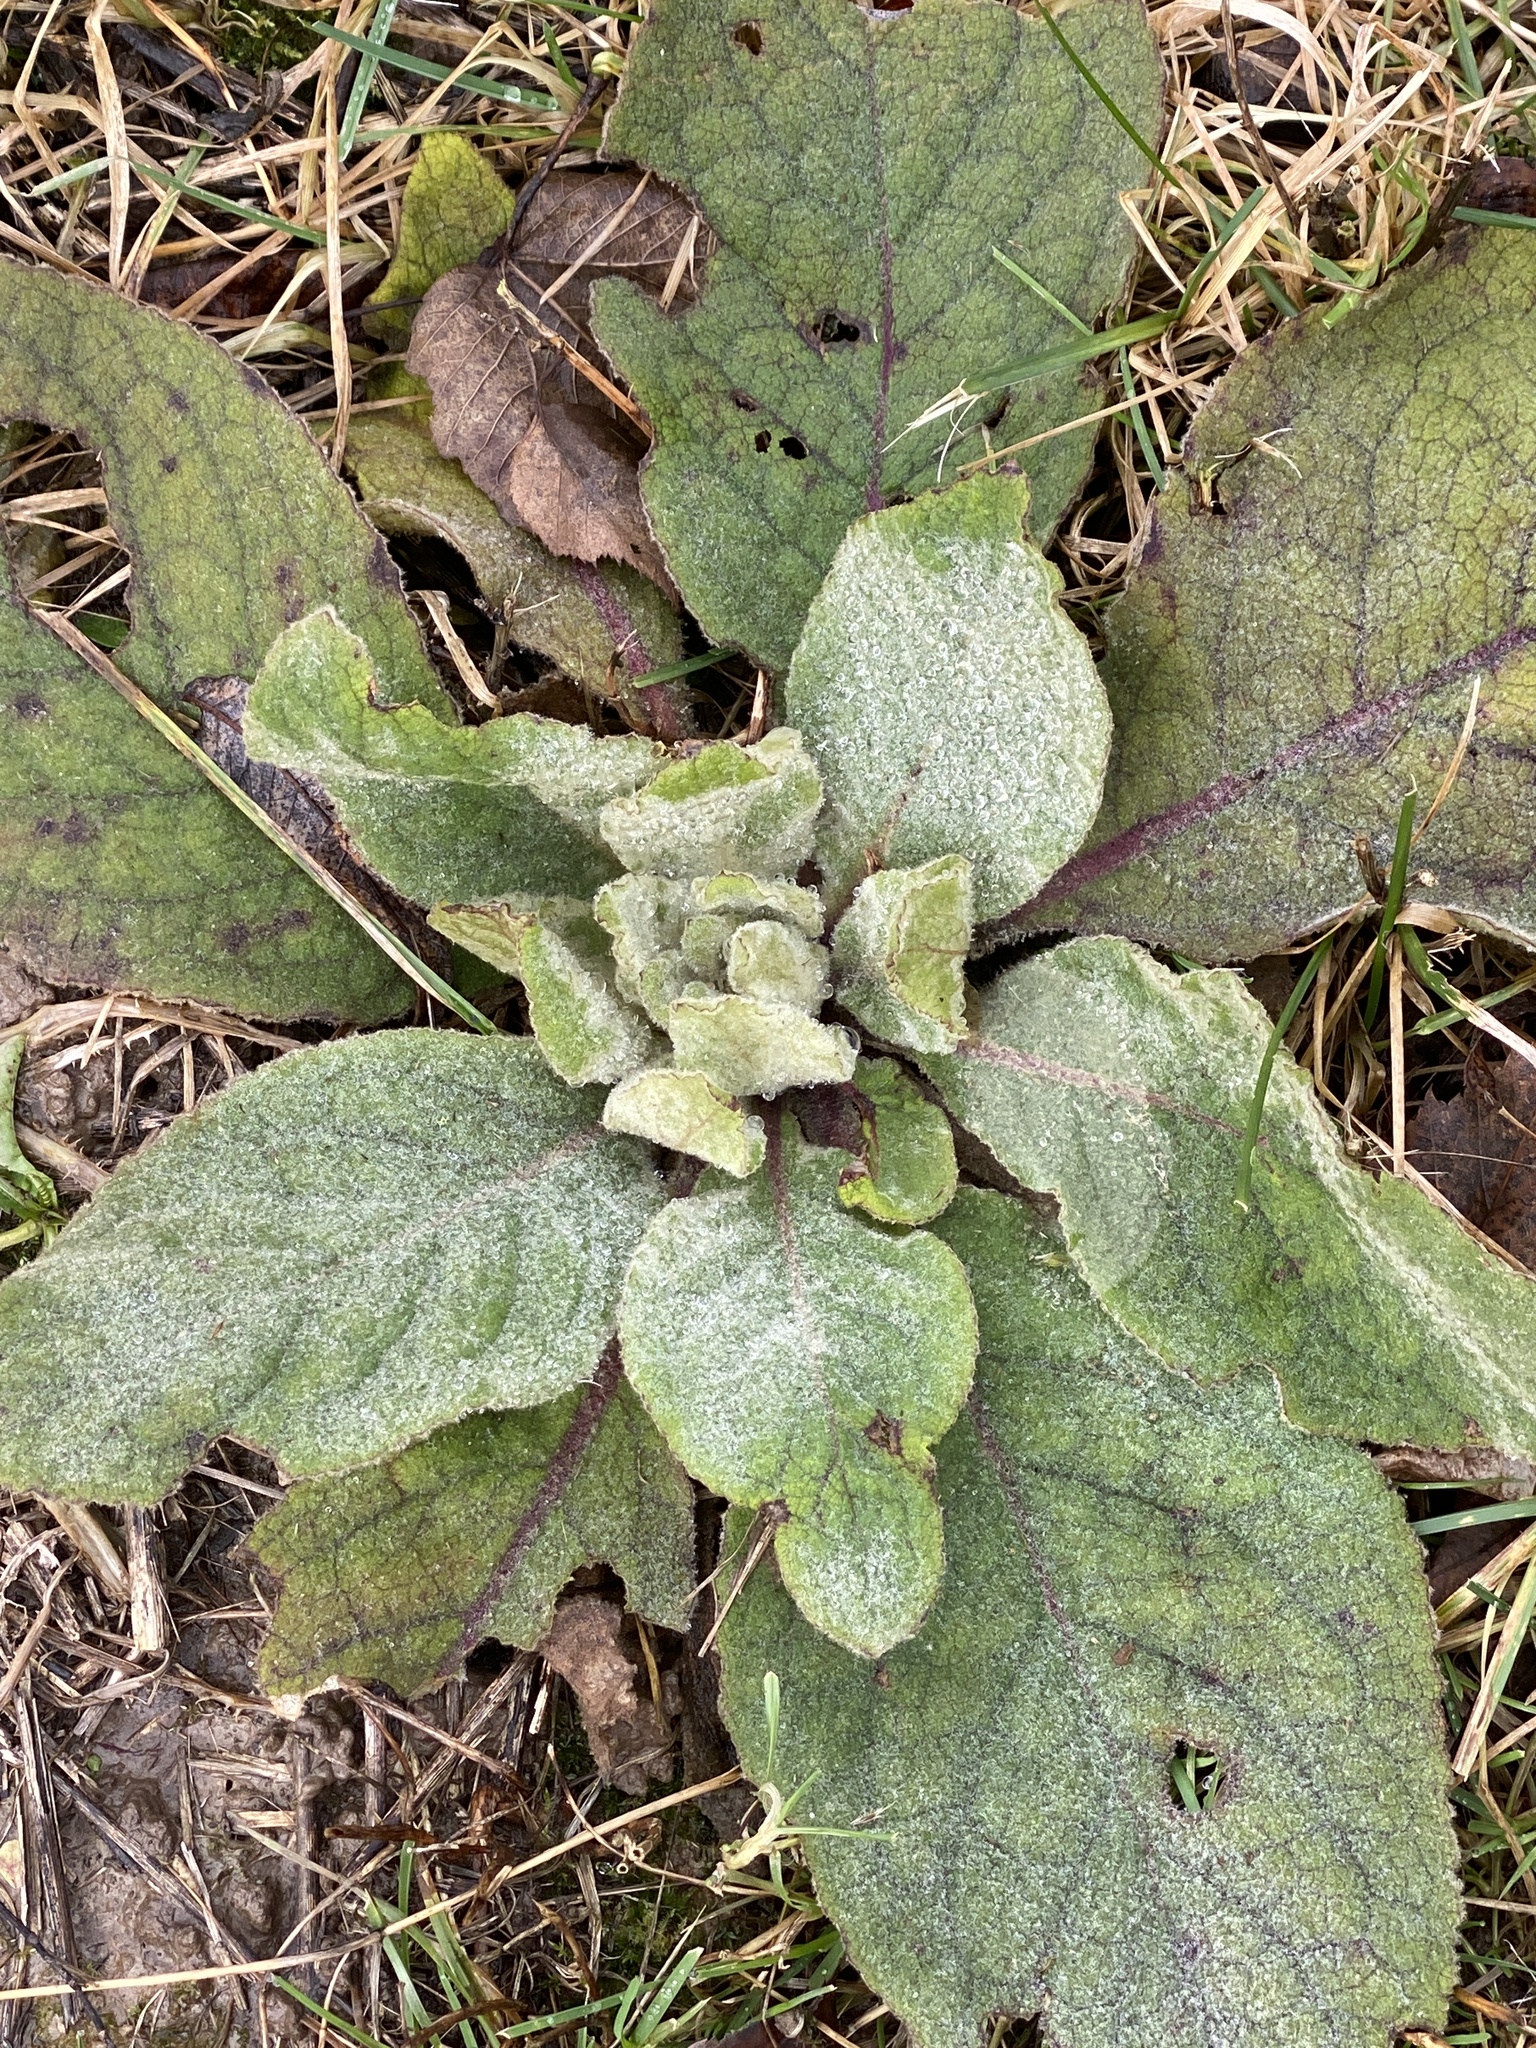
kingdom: Plantae
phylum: Tracheophyta
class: Magnoliopsida
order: Lamiales
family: Scrophulariaceae
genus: Verbascum
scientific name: Verbascum thapsus
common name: Common mullein
